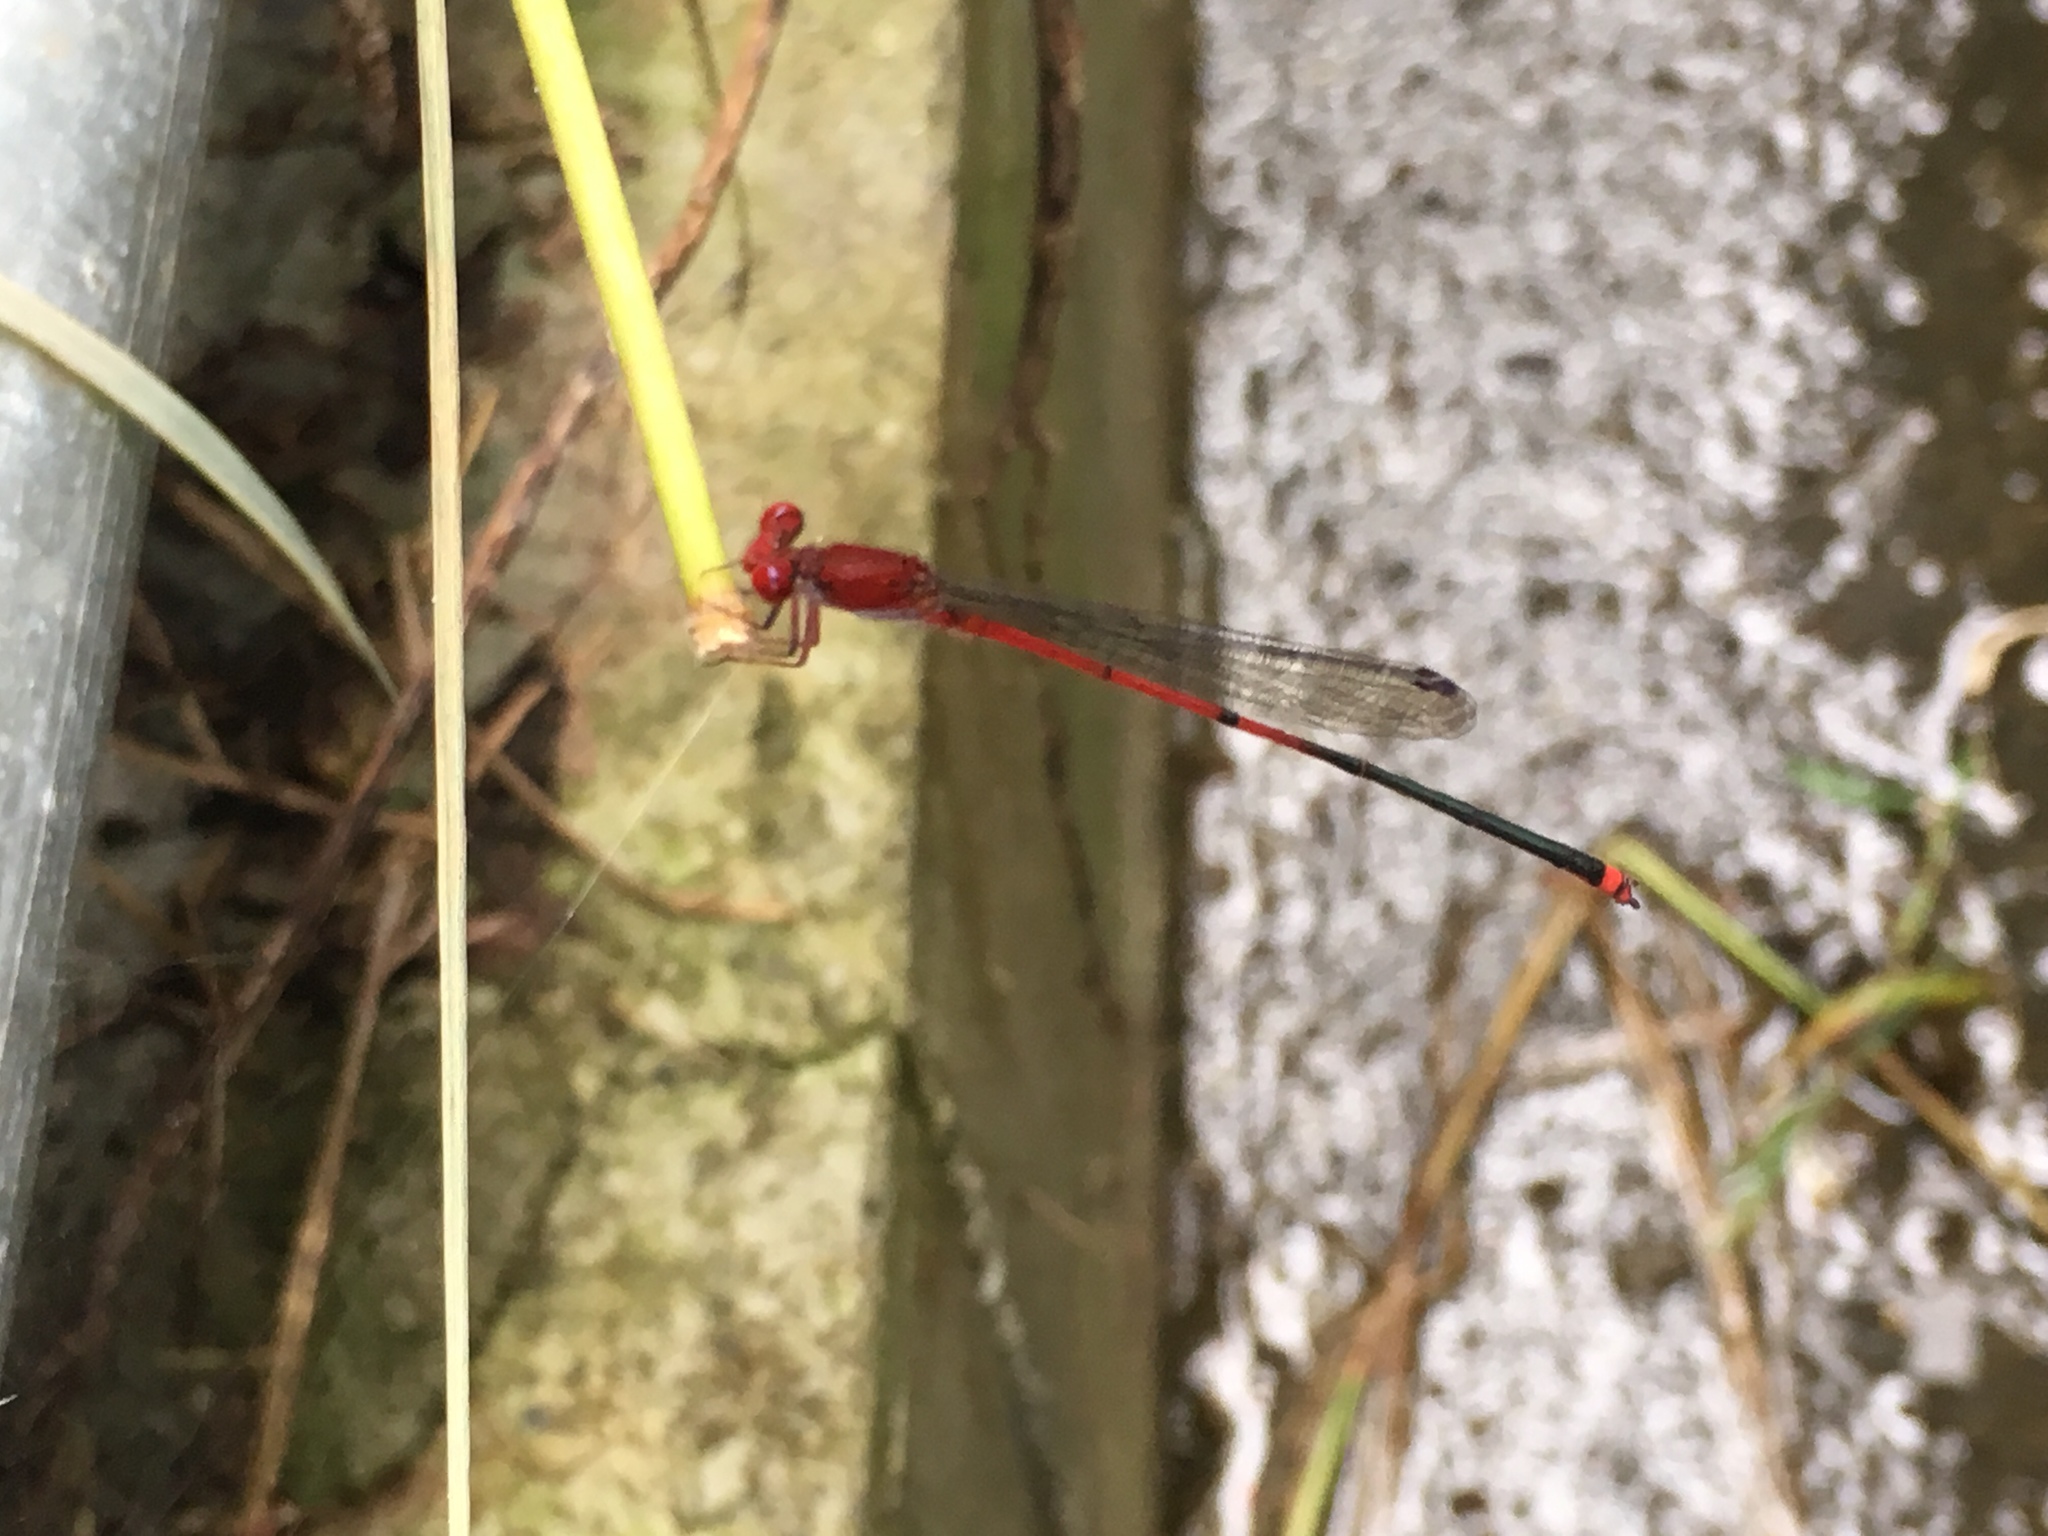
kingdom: Animalia
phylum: Arthropoda
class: Insecta
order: Odonata
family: Coenagrionidae
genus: Pseudagrion
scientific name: Pseudagrion pilidorsum
